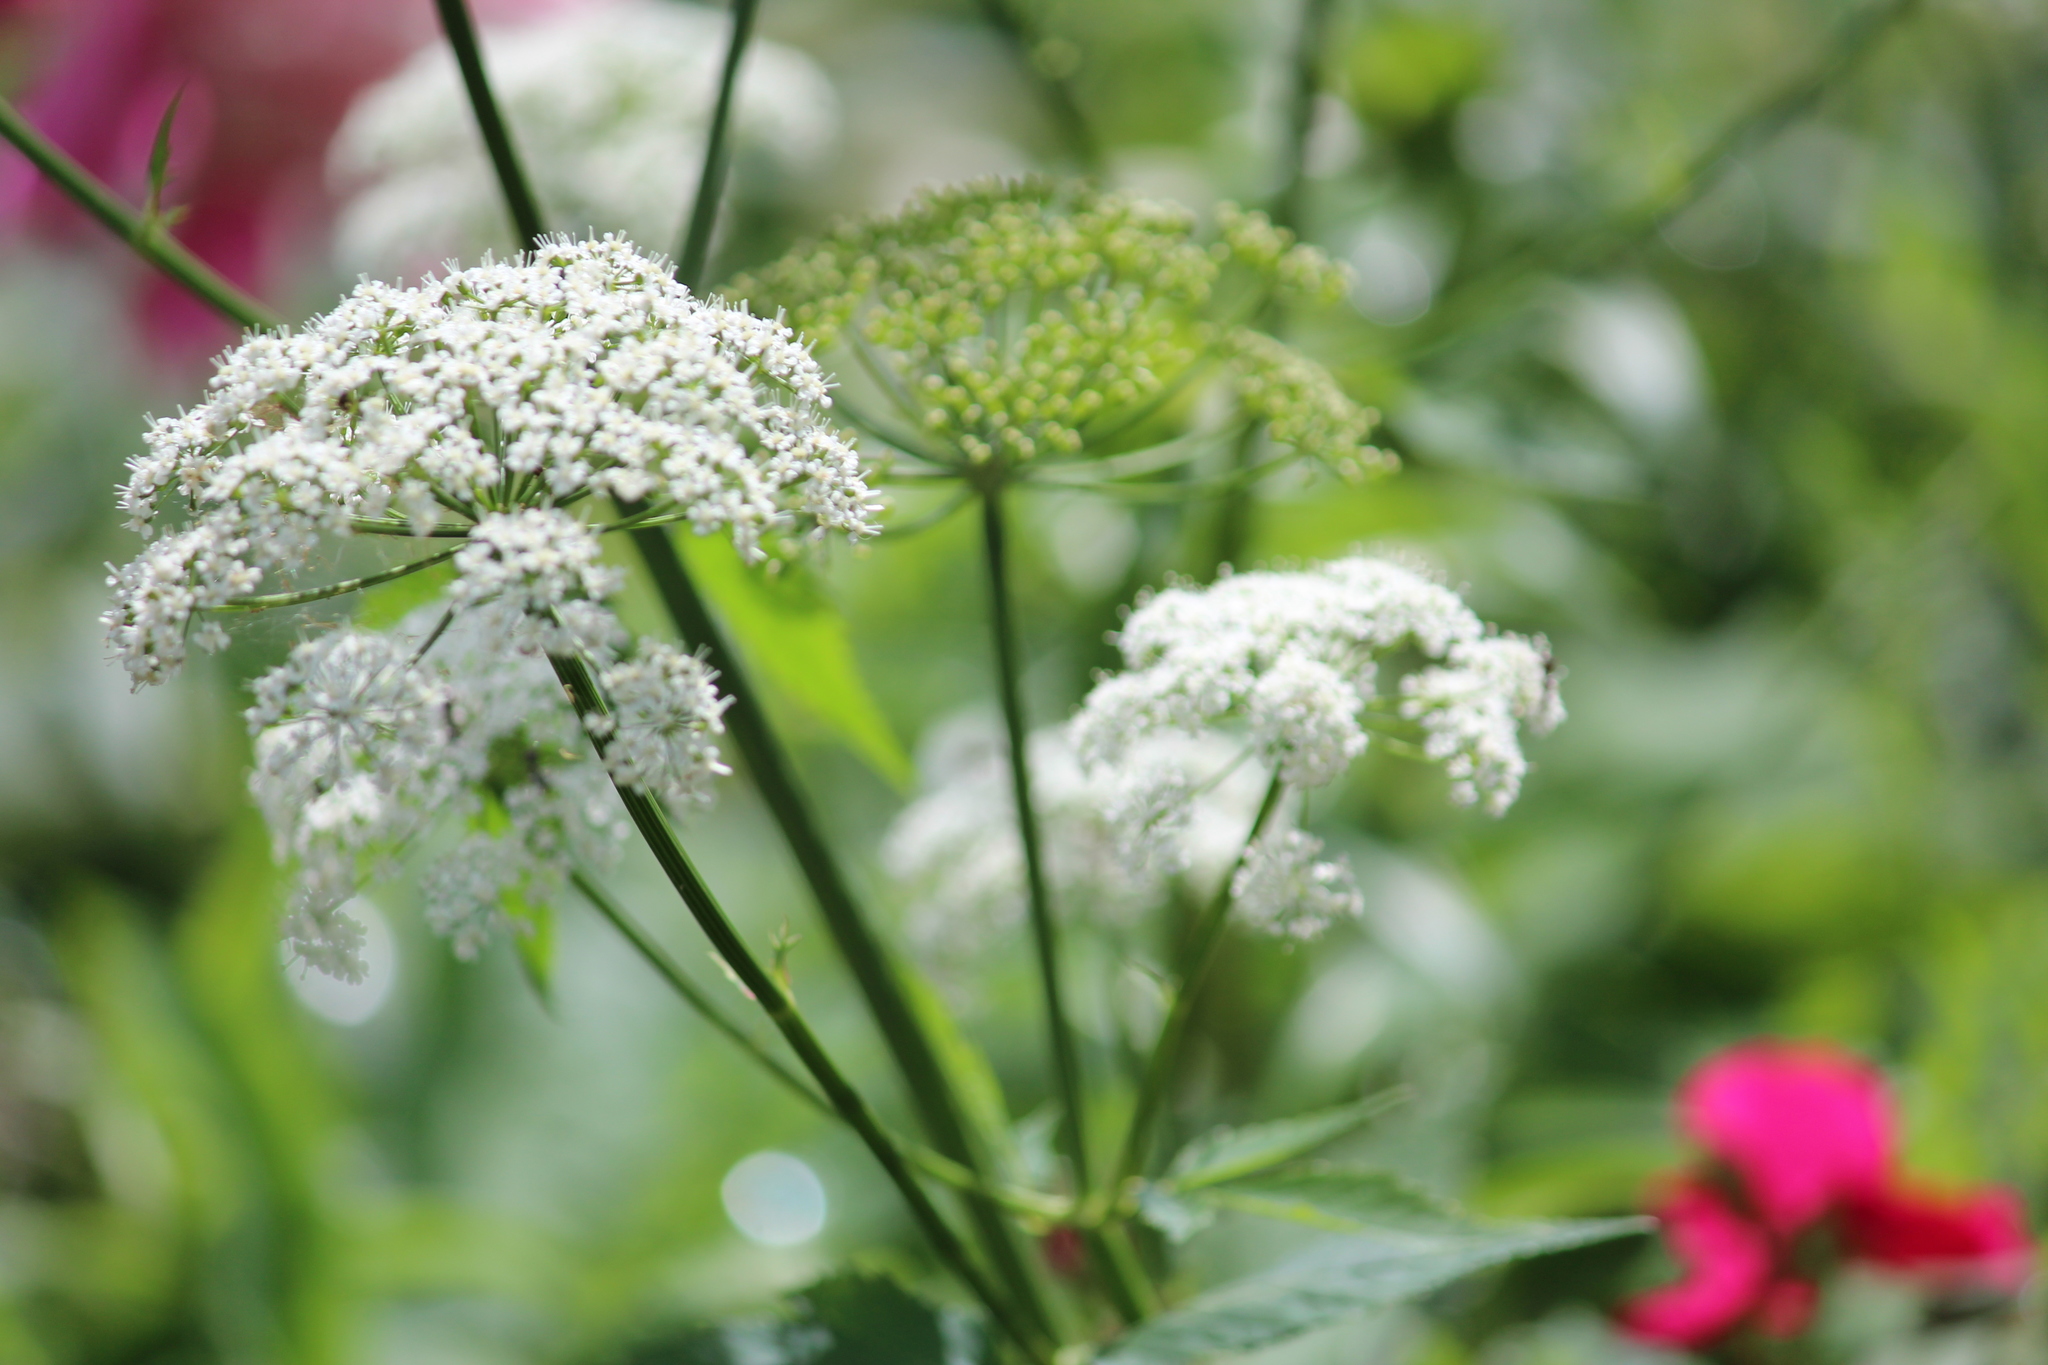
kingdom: Plantae
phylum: Tracheophyta
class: Magnoliopsida
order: Apiales
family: Apiaceae
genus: Aegopodium
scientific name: Aegopodium podagraria
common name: Ground-elder
